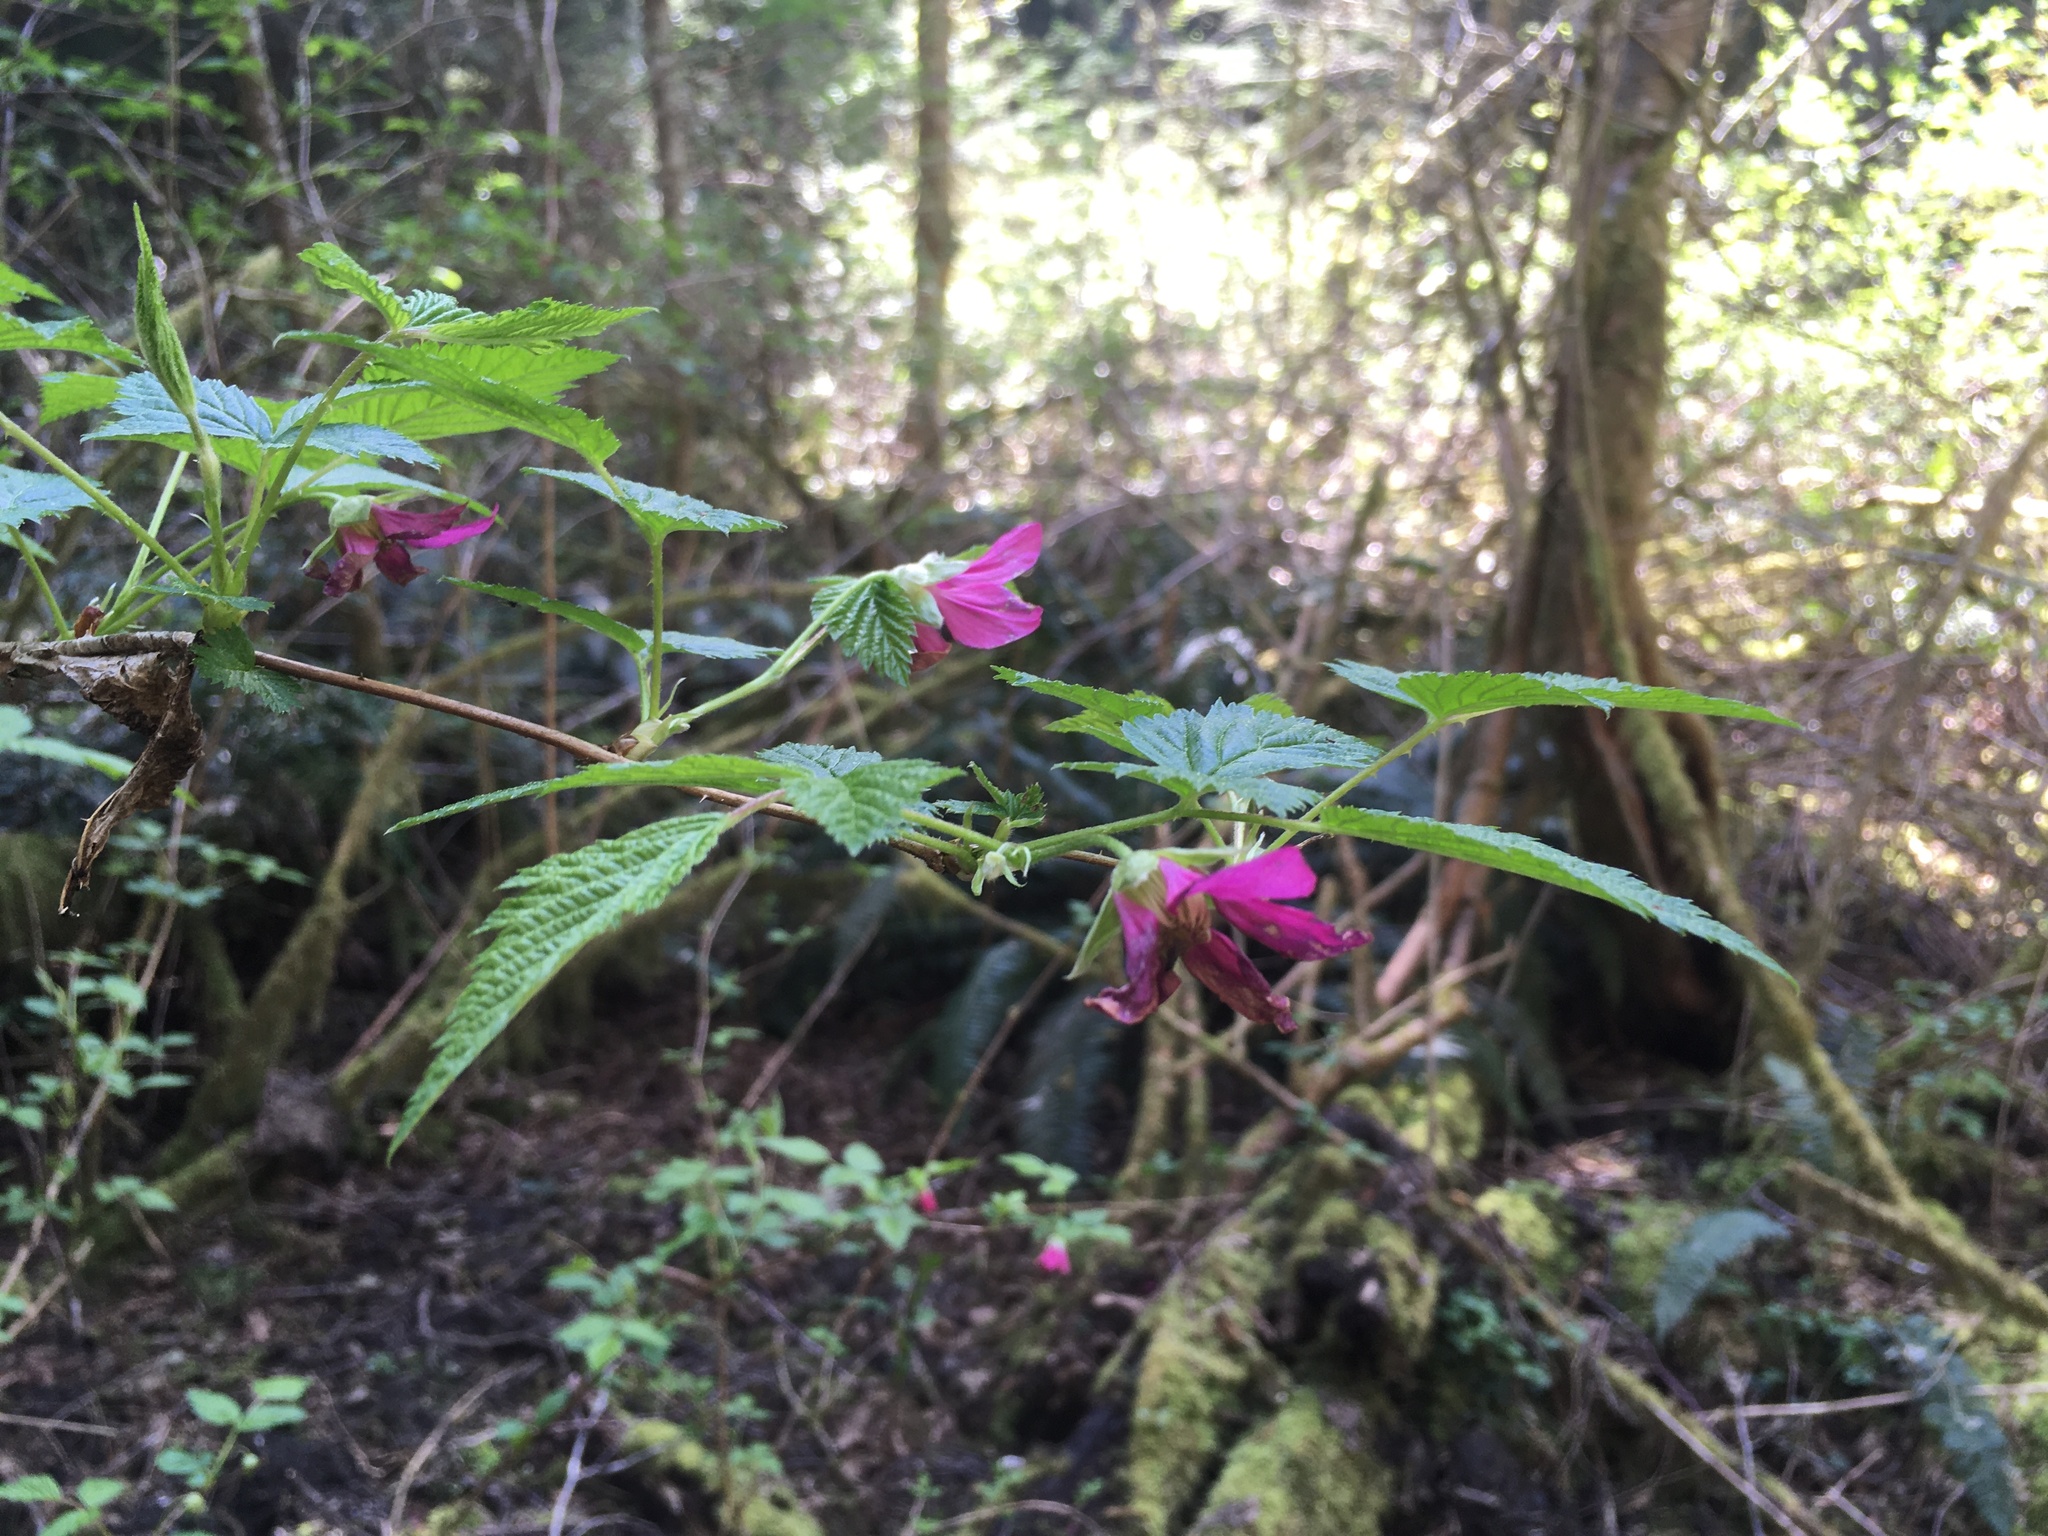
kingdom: Plantae
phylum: Tracheophyta
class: Magnoliopsida
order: Rosales
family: Rosaceae
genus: Rubus
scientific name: Rubus spectabilis
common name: Salmonberry
